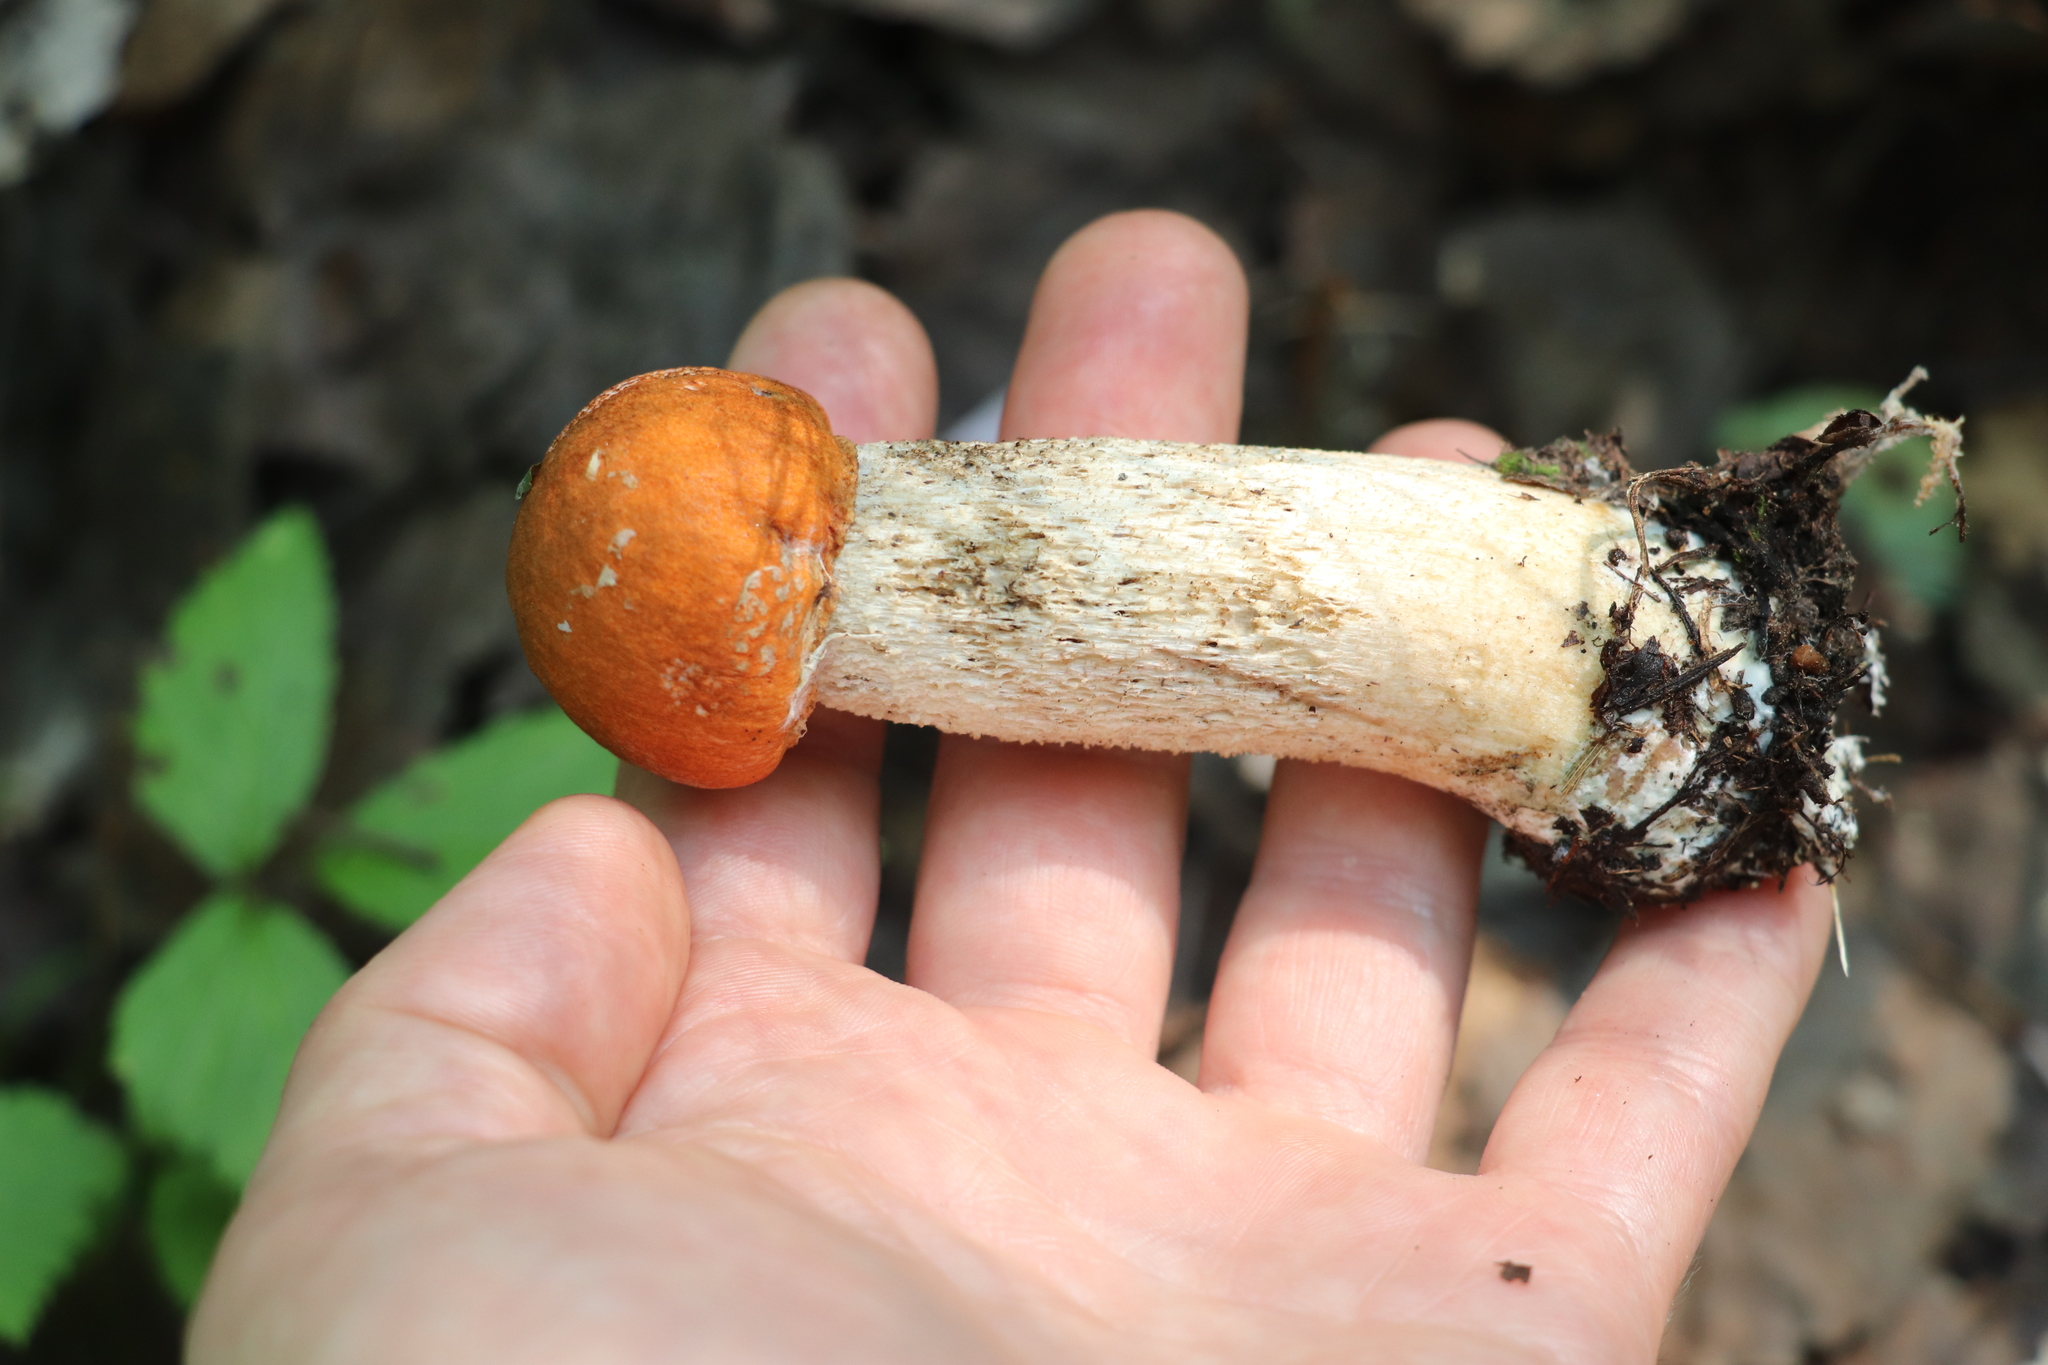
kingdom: Fungi
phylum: Basidiomycota
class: Agaricomycetes
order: Boletales
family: Boletaceae
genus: Leccinum
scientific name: Leccinum albostipitatum
